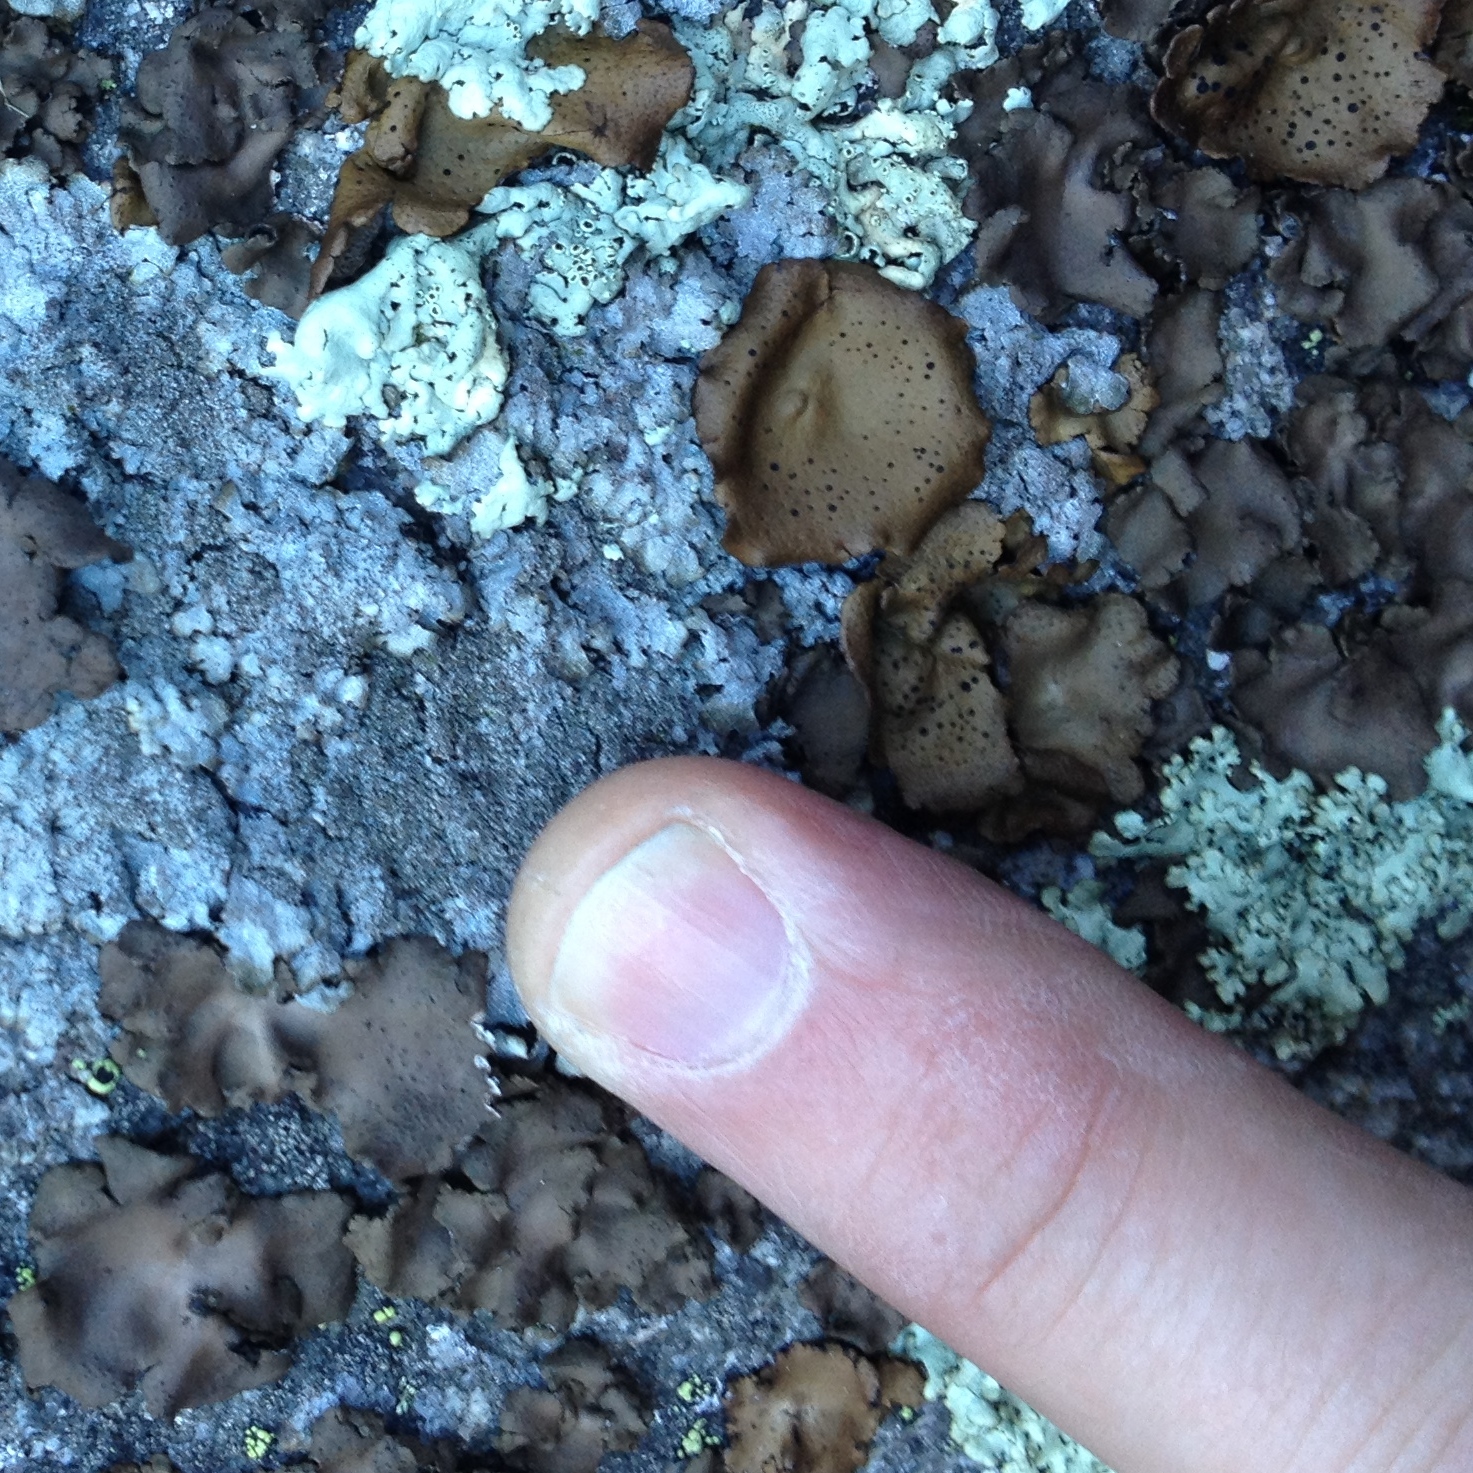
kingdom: Fungi
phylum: Ascomycota
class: Lecanoromycetes
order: Umbilicariales
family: Umbilicariaceae
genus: Umbilicaria
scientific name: Umbilicaria polyphylla
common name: Petalled rocktripe lichen
